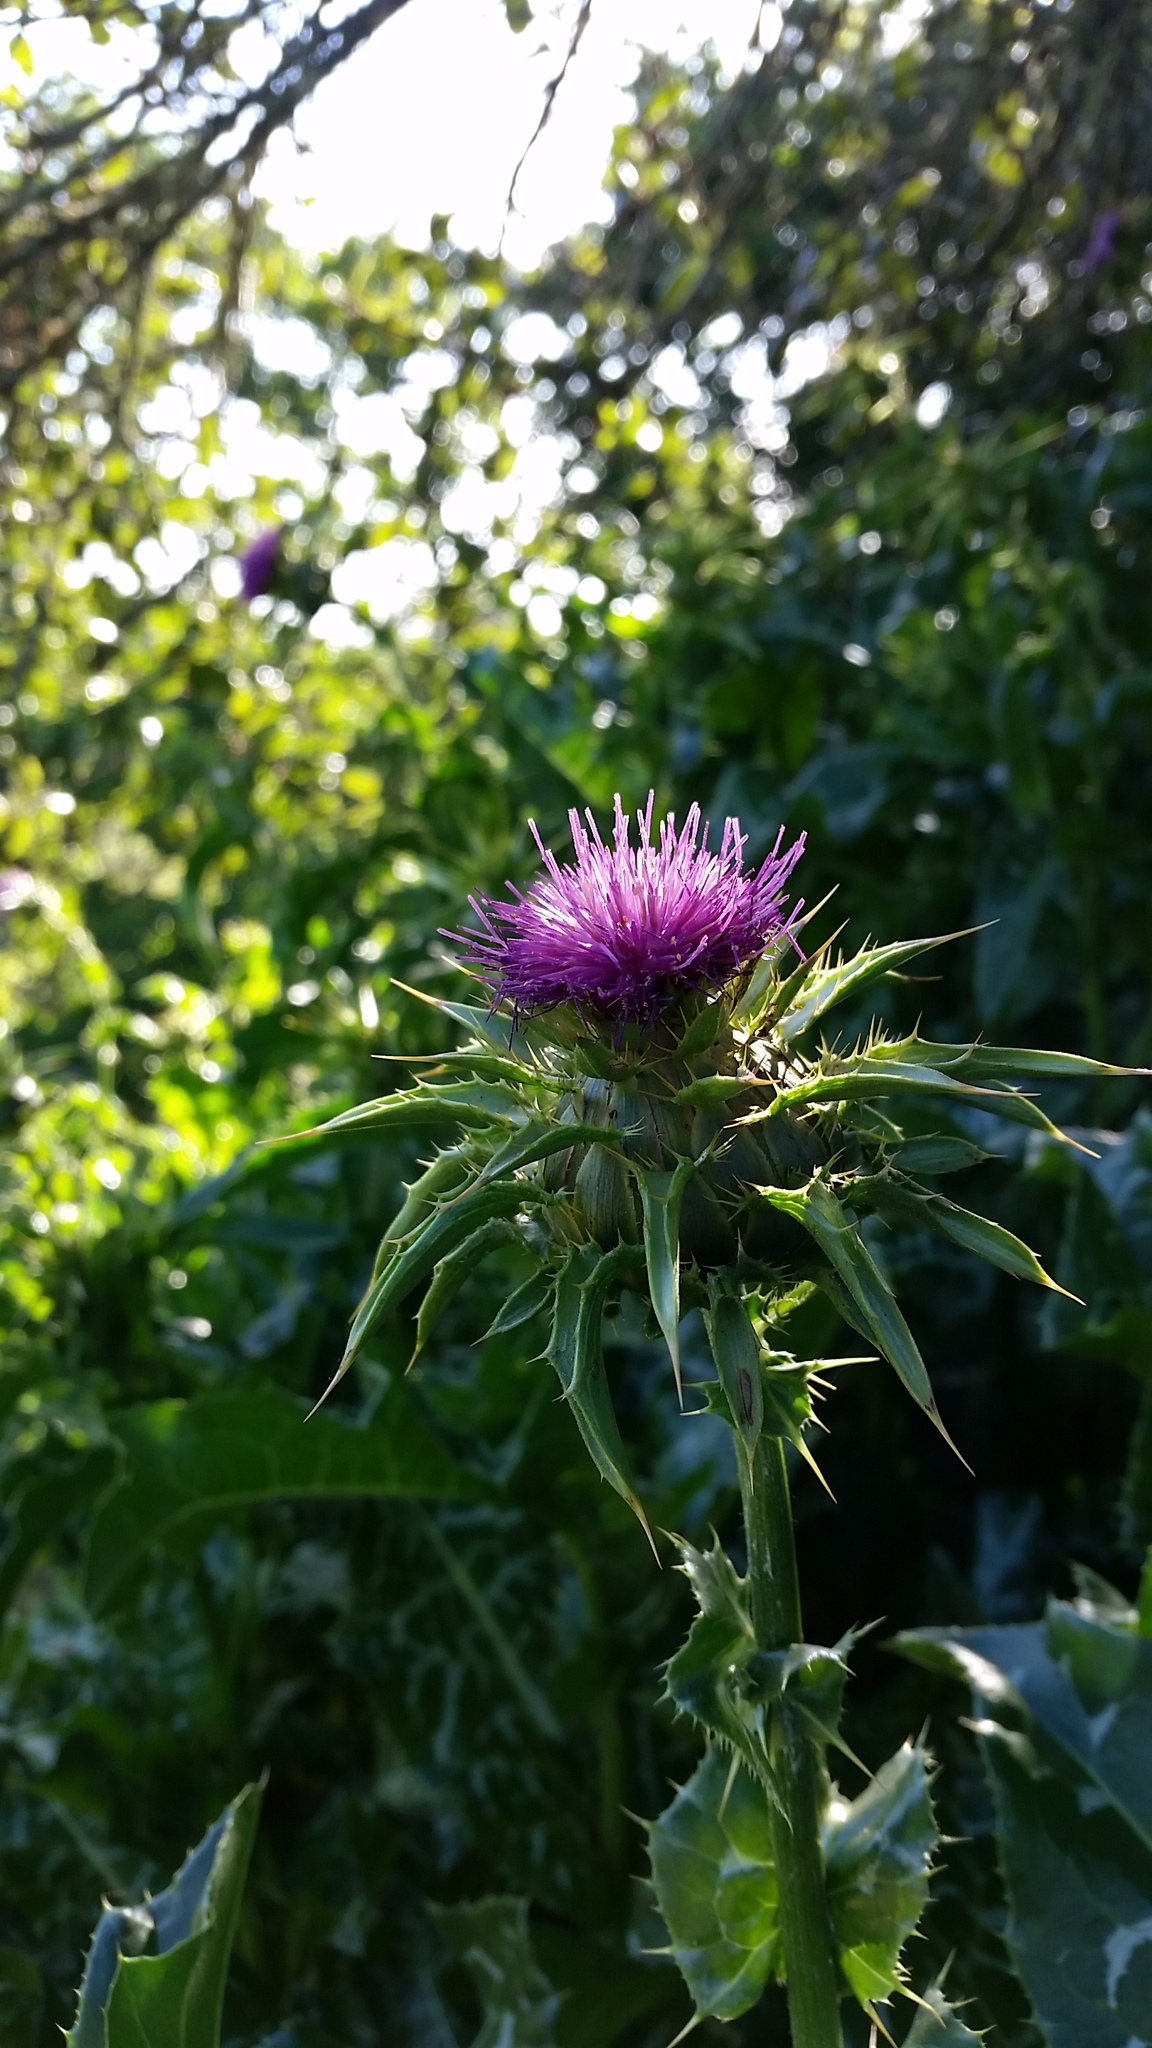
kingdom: Plantae
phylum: Tracheophyta
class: Magnoliopsida
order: Asterales
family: Asteraceae
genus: Silybum
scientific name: Silybum marianum
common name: Milk thistle
